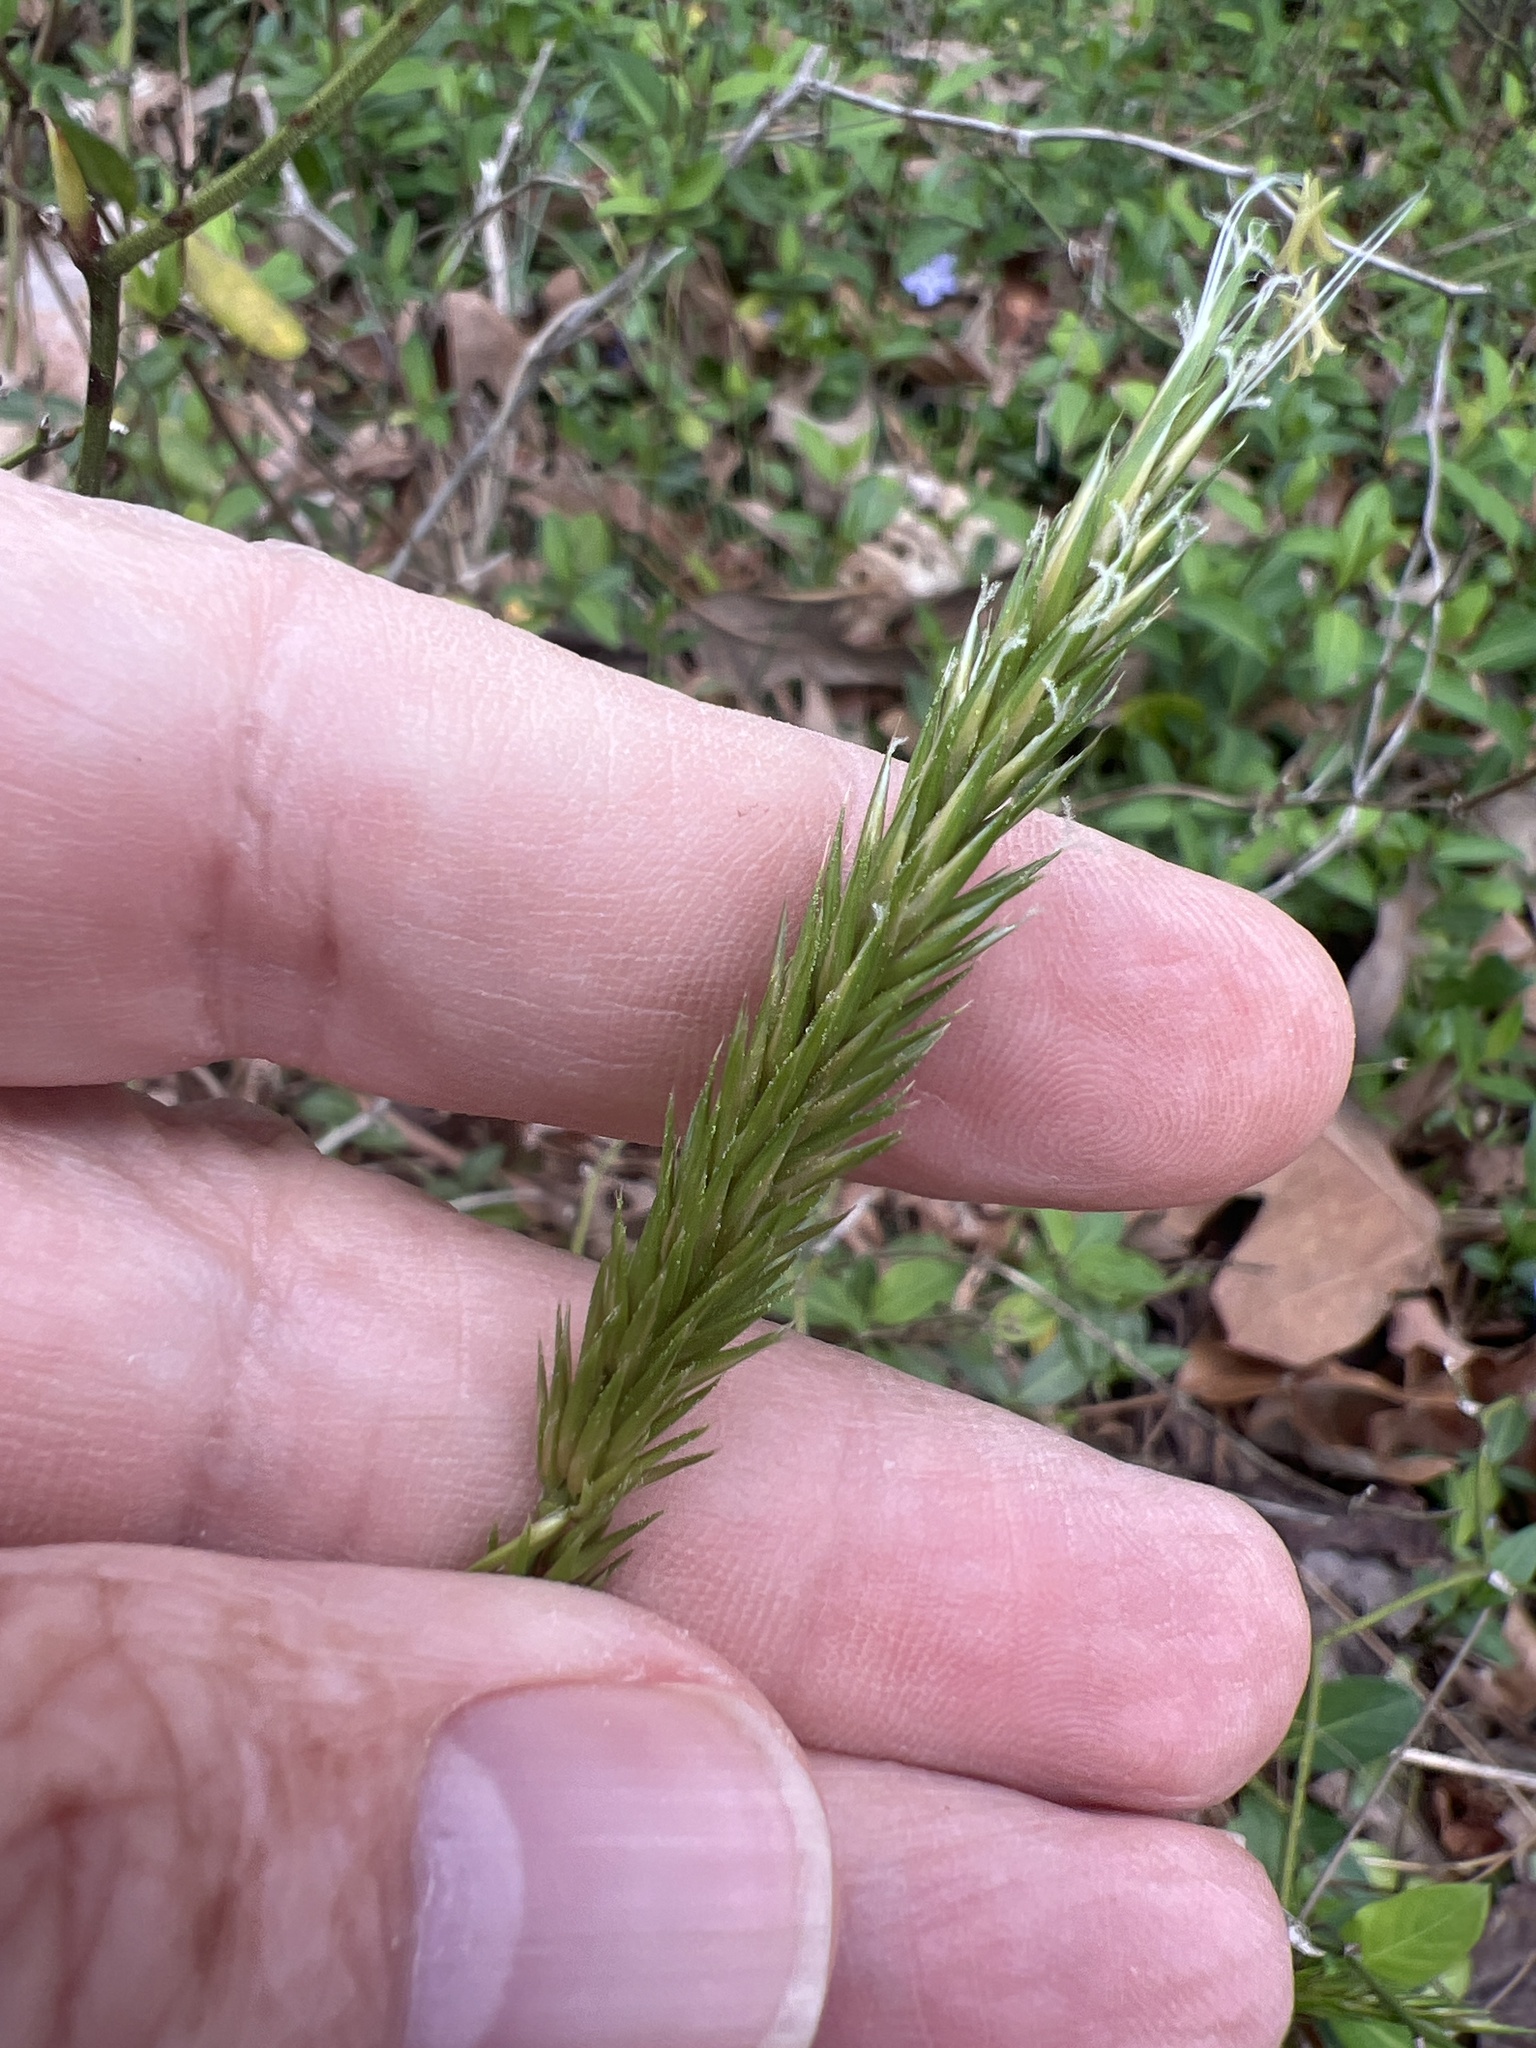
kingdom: Plantae
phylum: Tracheophyta
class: Liliopsida
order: Poales
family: Poaceae
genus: Anthoxanthum
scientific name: Anthoxanthum odoratum
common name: Sweet vernalgrass
